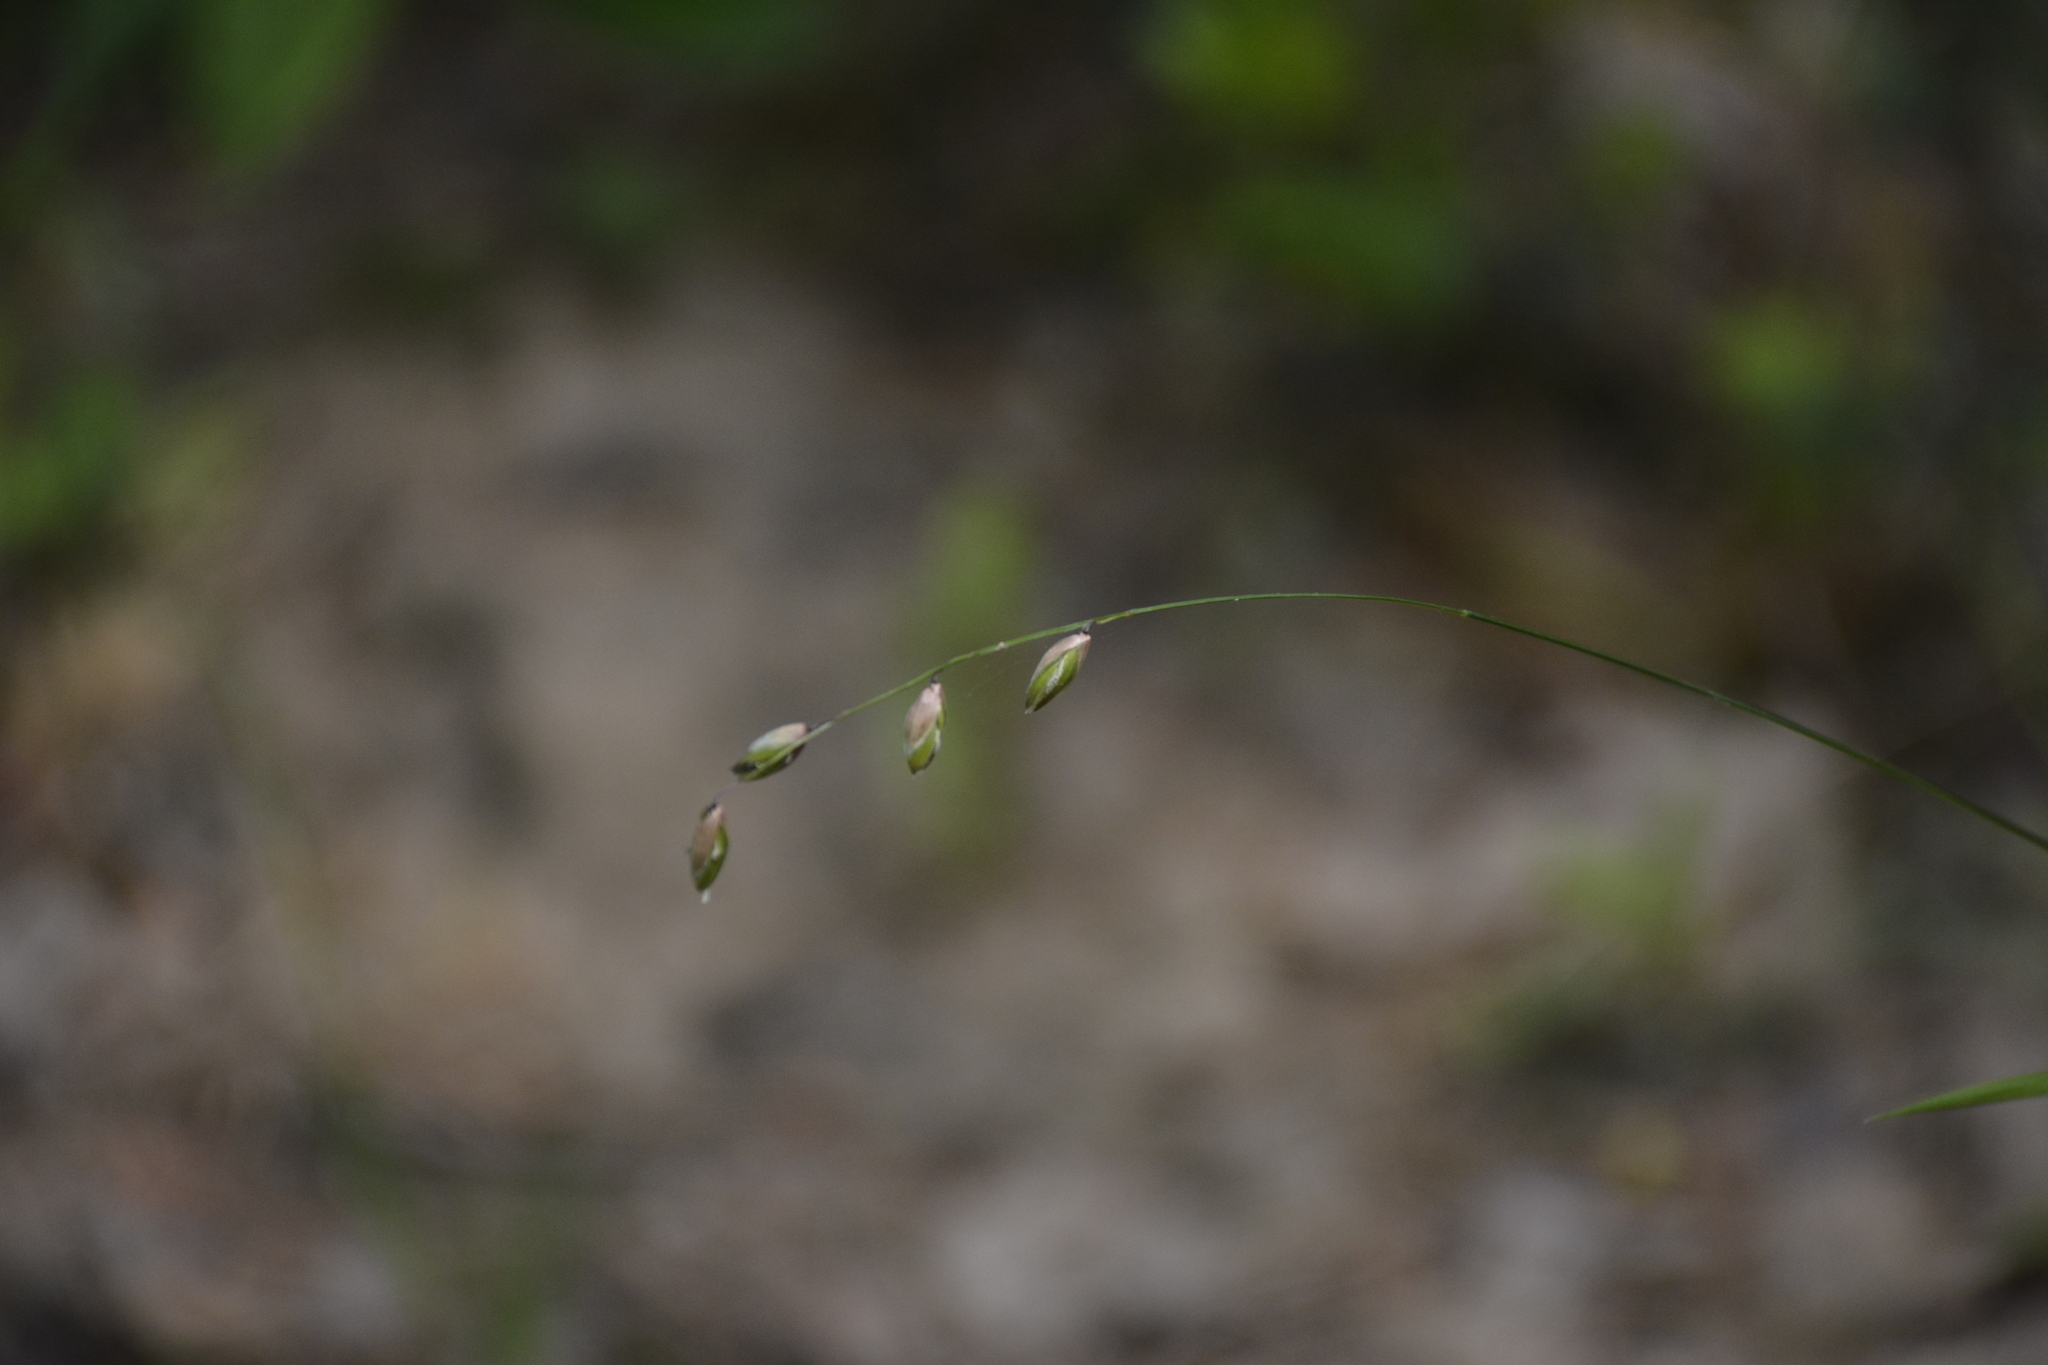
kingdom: Plantae
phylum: Tracheophyta
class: Liliopsida
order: Poales
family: Poaceae
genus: Melica
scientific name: Melica nutans
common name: Mountain melick
